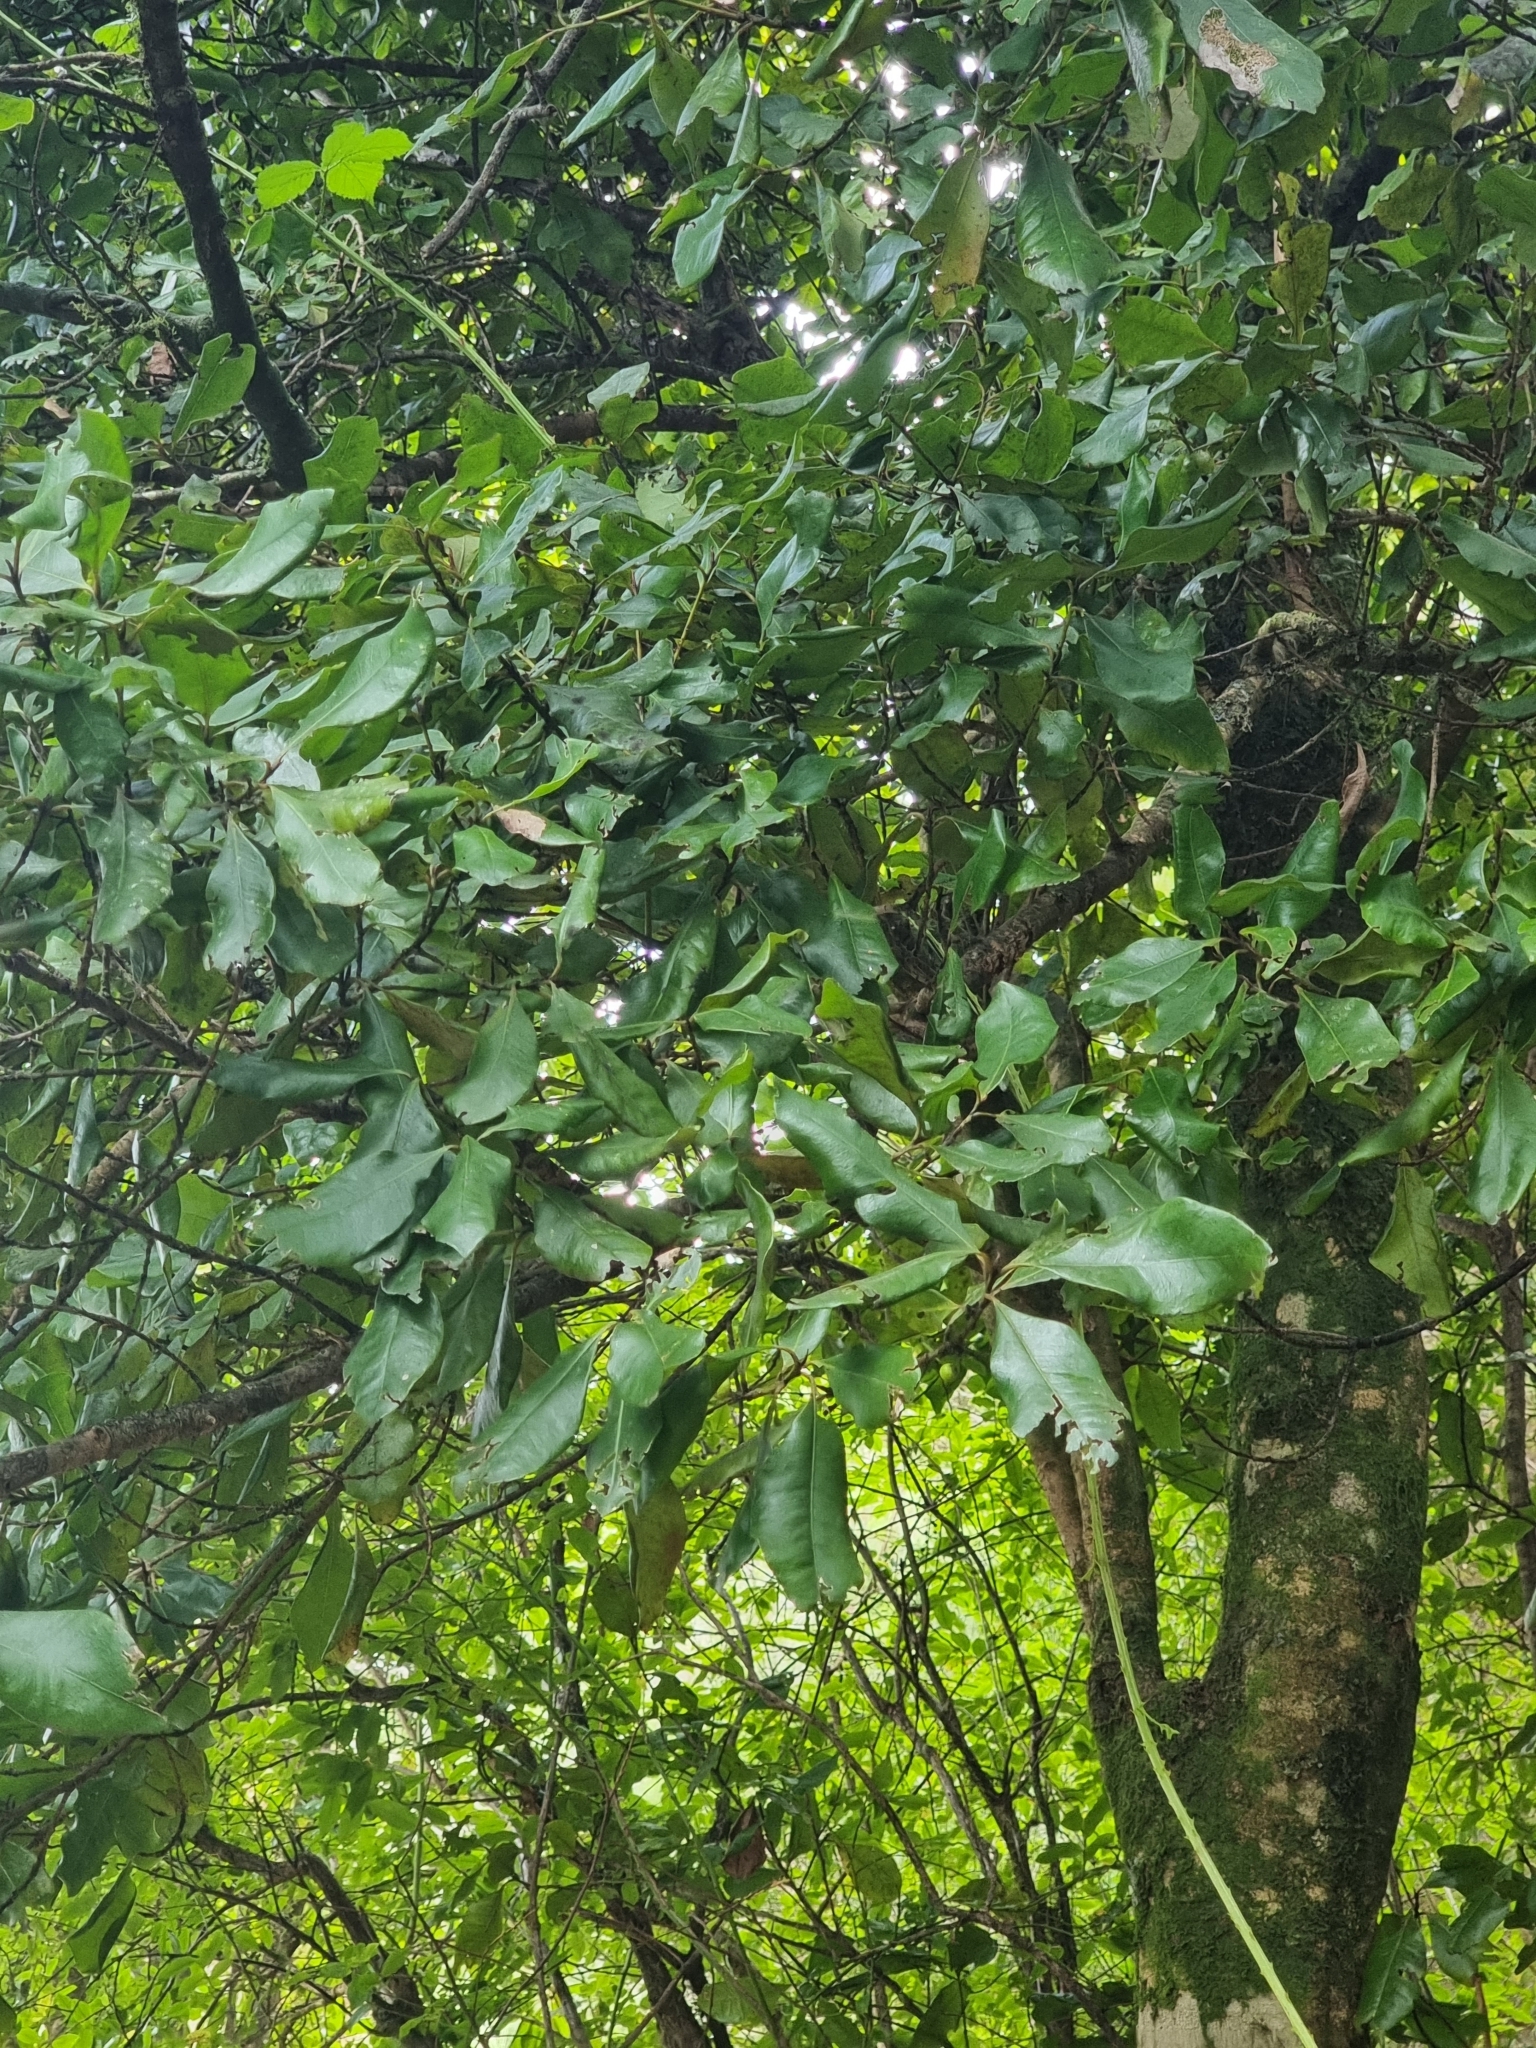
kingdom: Plantae
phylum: Tracheophyta
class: Magnoliopsida
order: Ericales
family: Primulaceae
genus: Heberdenia
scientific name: Heberdenia excelsa
